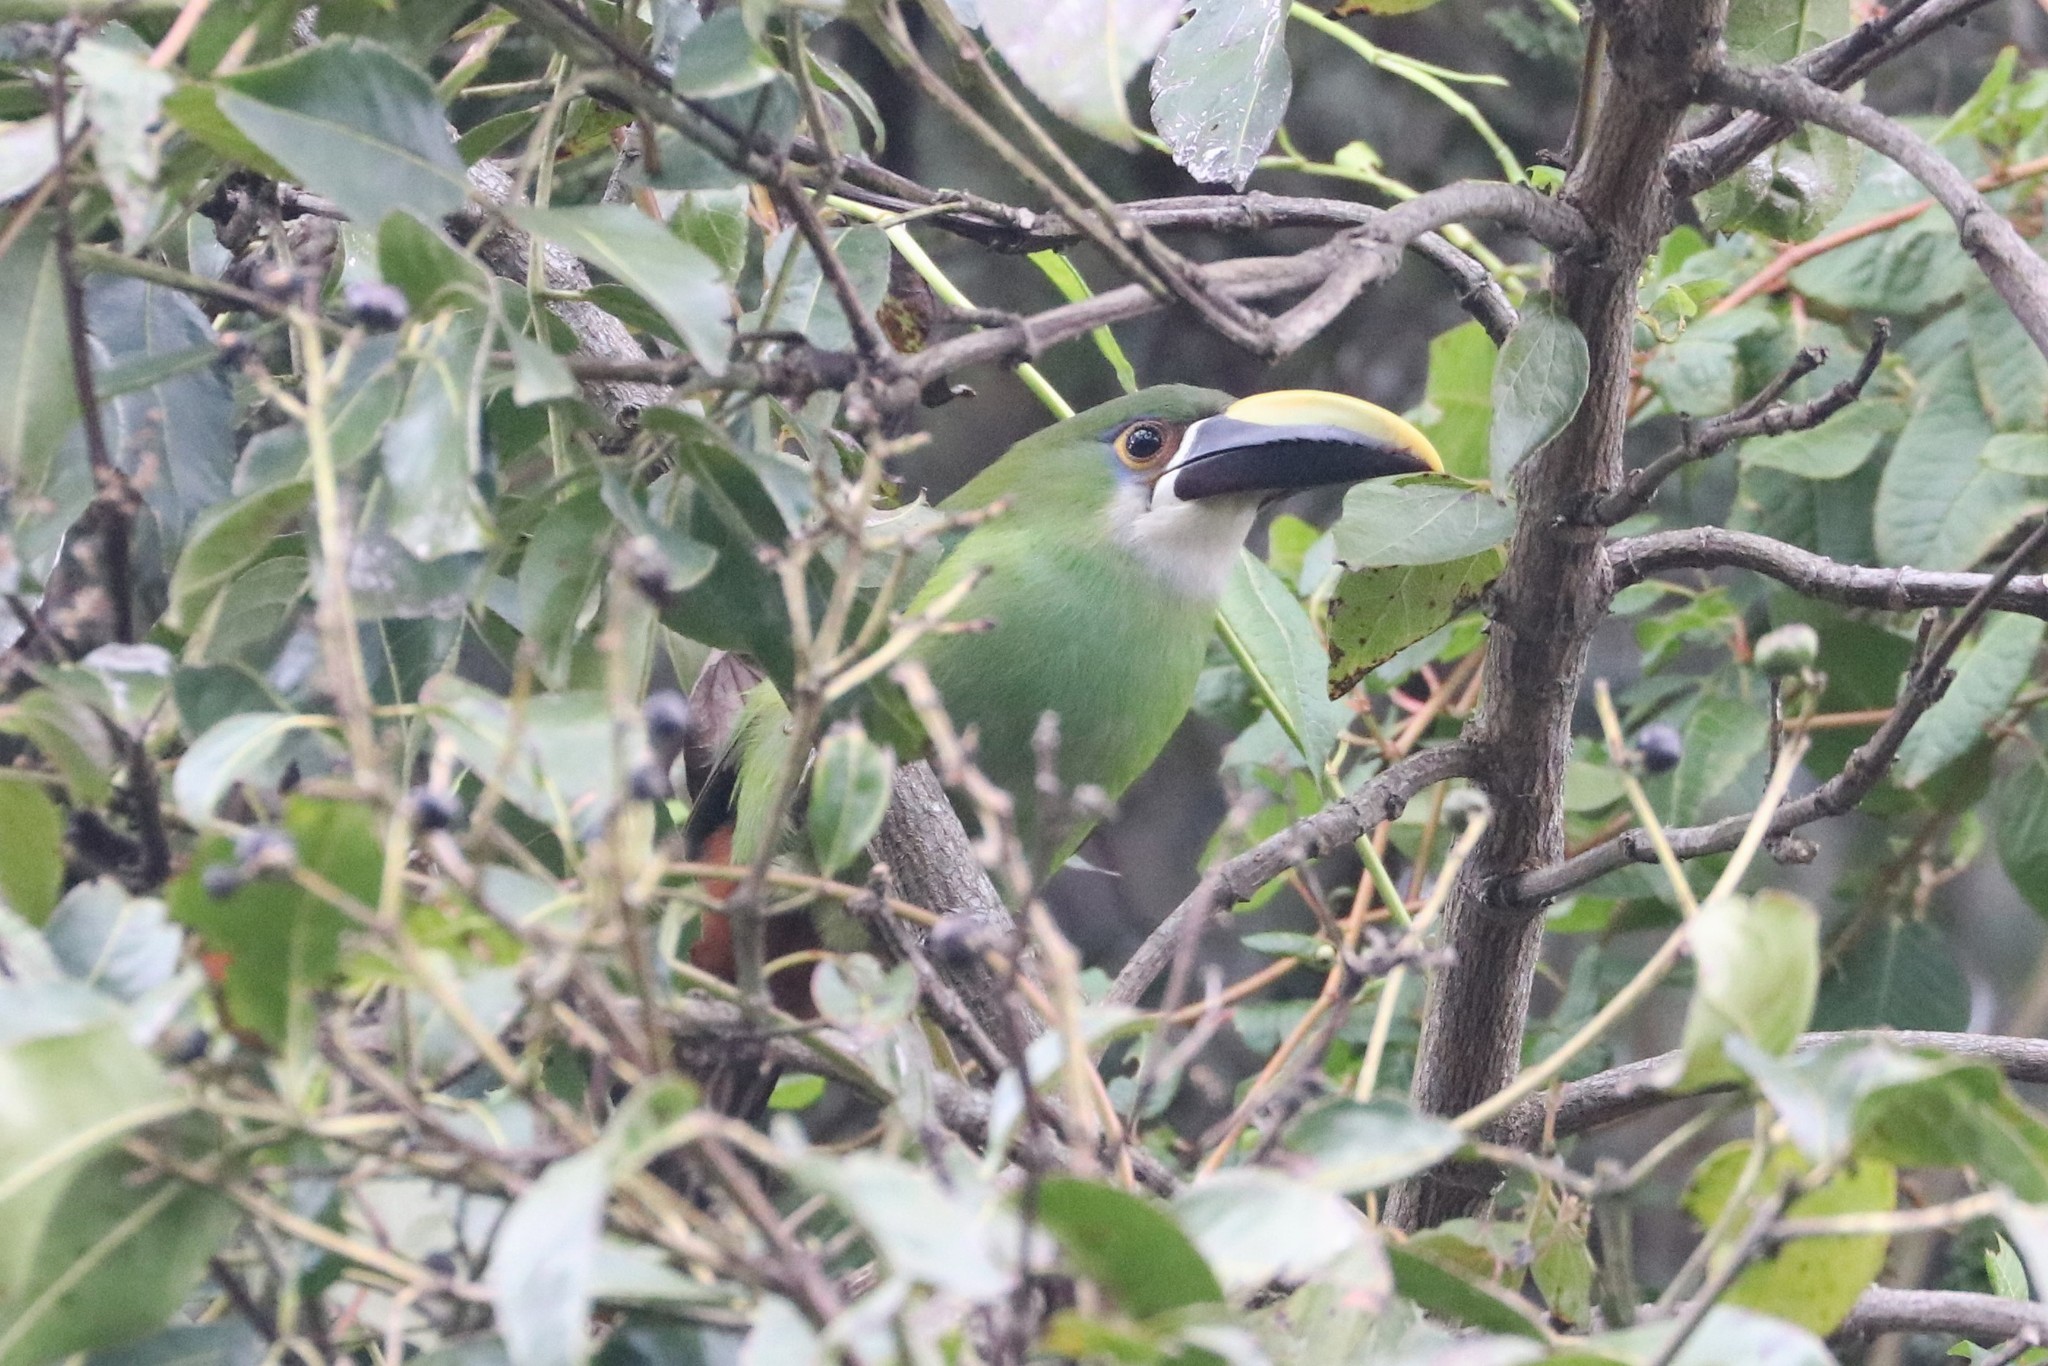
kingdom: Animalia
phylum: Chordata
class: Aves
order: Piciformes
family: Ramphastidae
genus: Aulacorhynchus
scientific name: Aulacorhynchus albivitta
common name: White-throated toucanet
